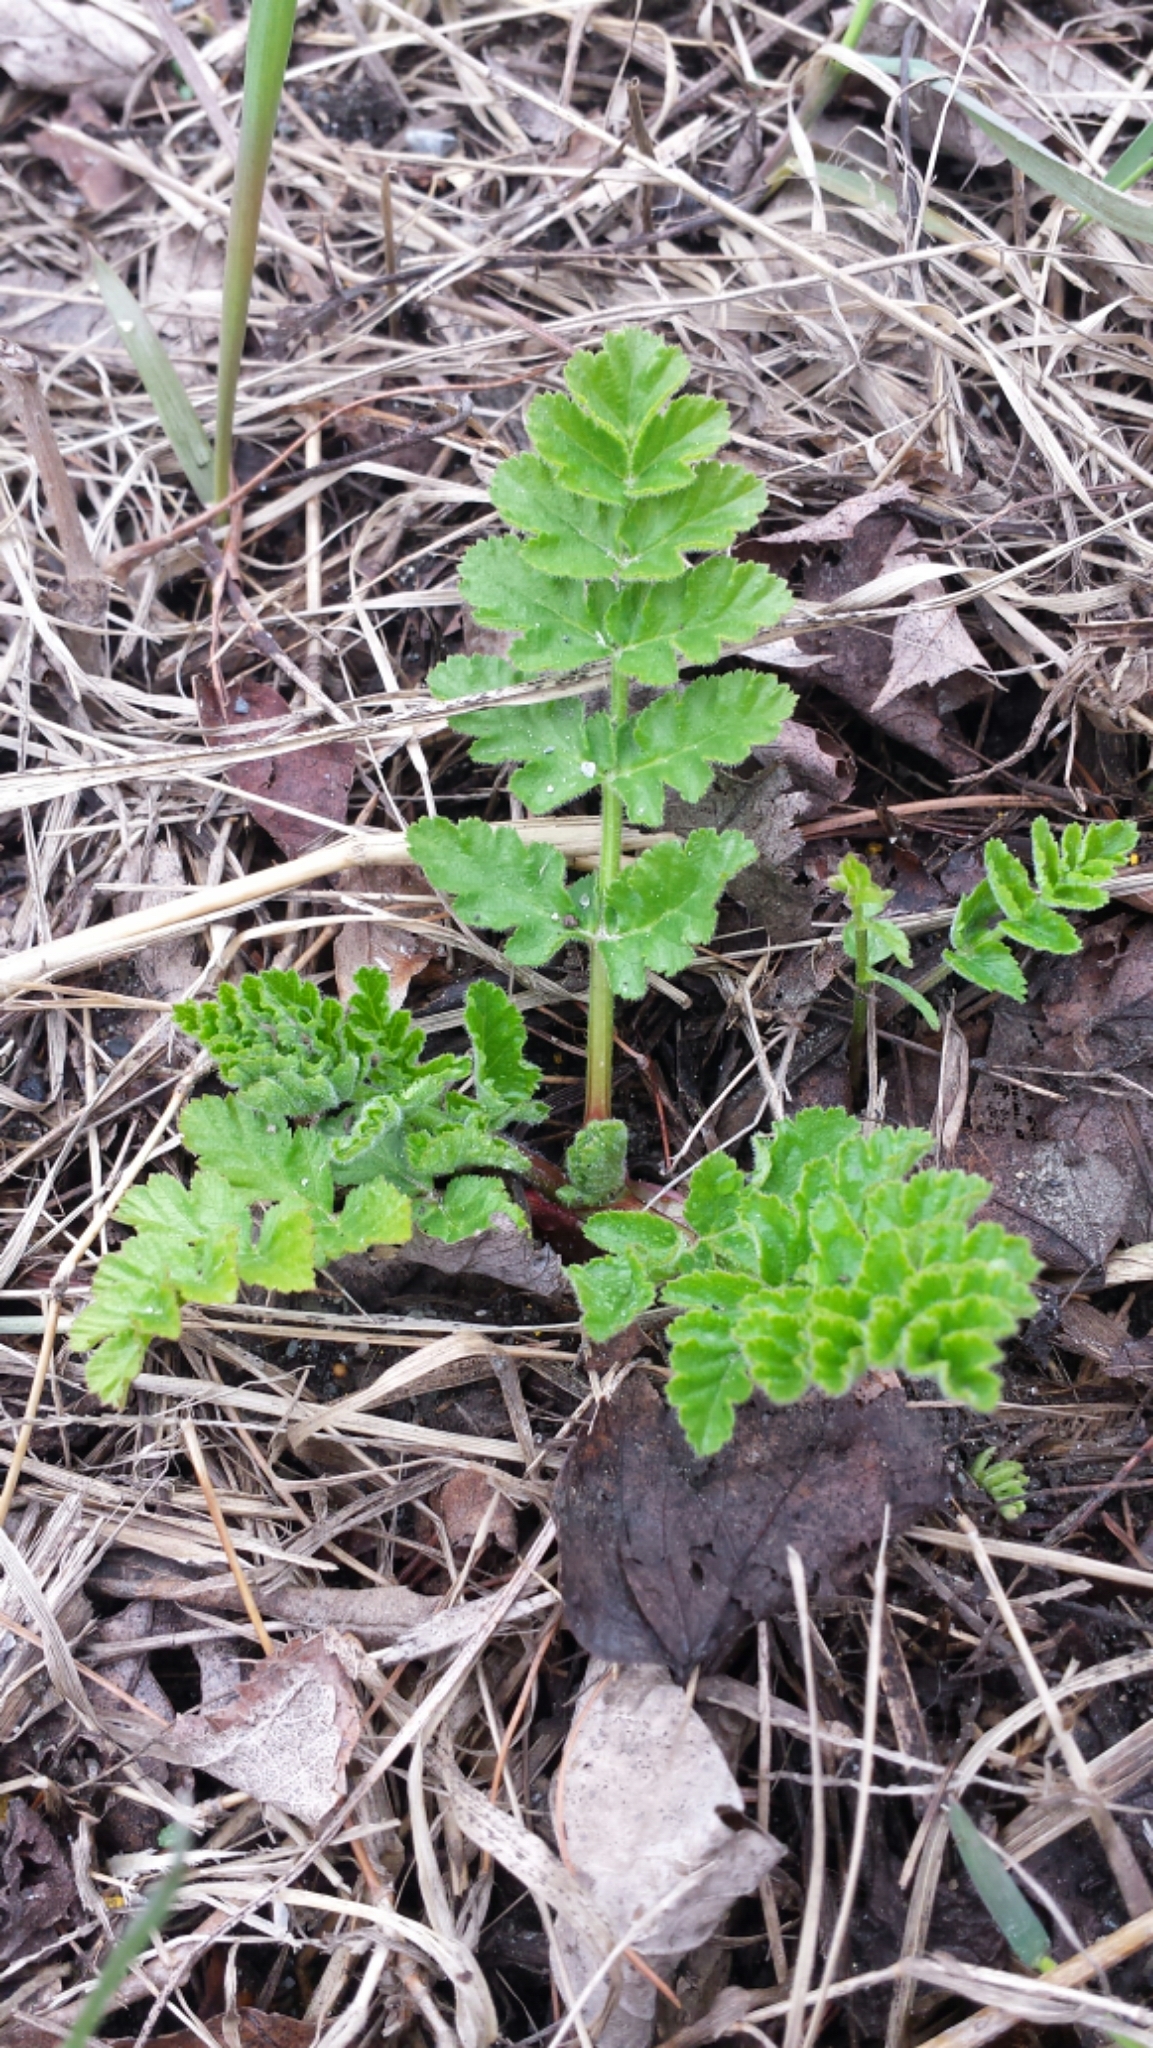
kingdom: Plantae
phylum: Tracheophyta
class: Magnoliopsida
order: Apiales
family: Apiaceae
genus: Pastinaca
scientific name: Pastinaca sativa
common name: Wild parsnip
